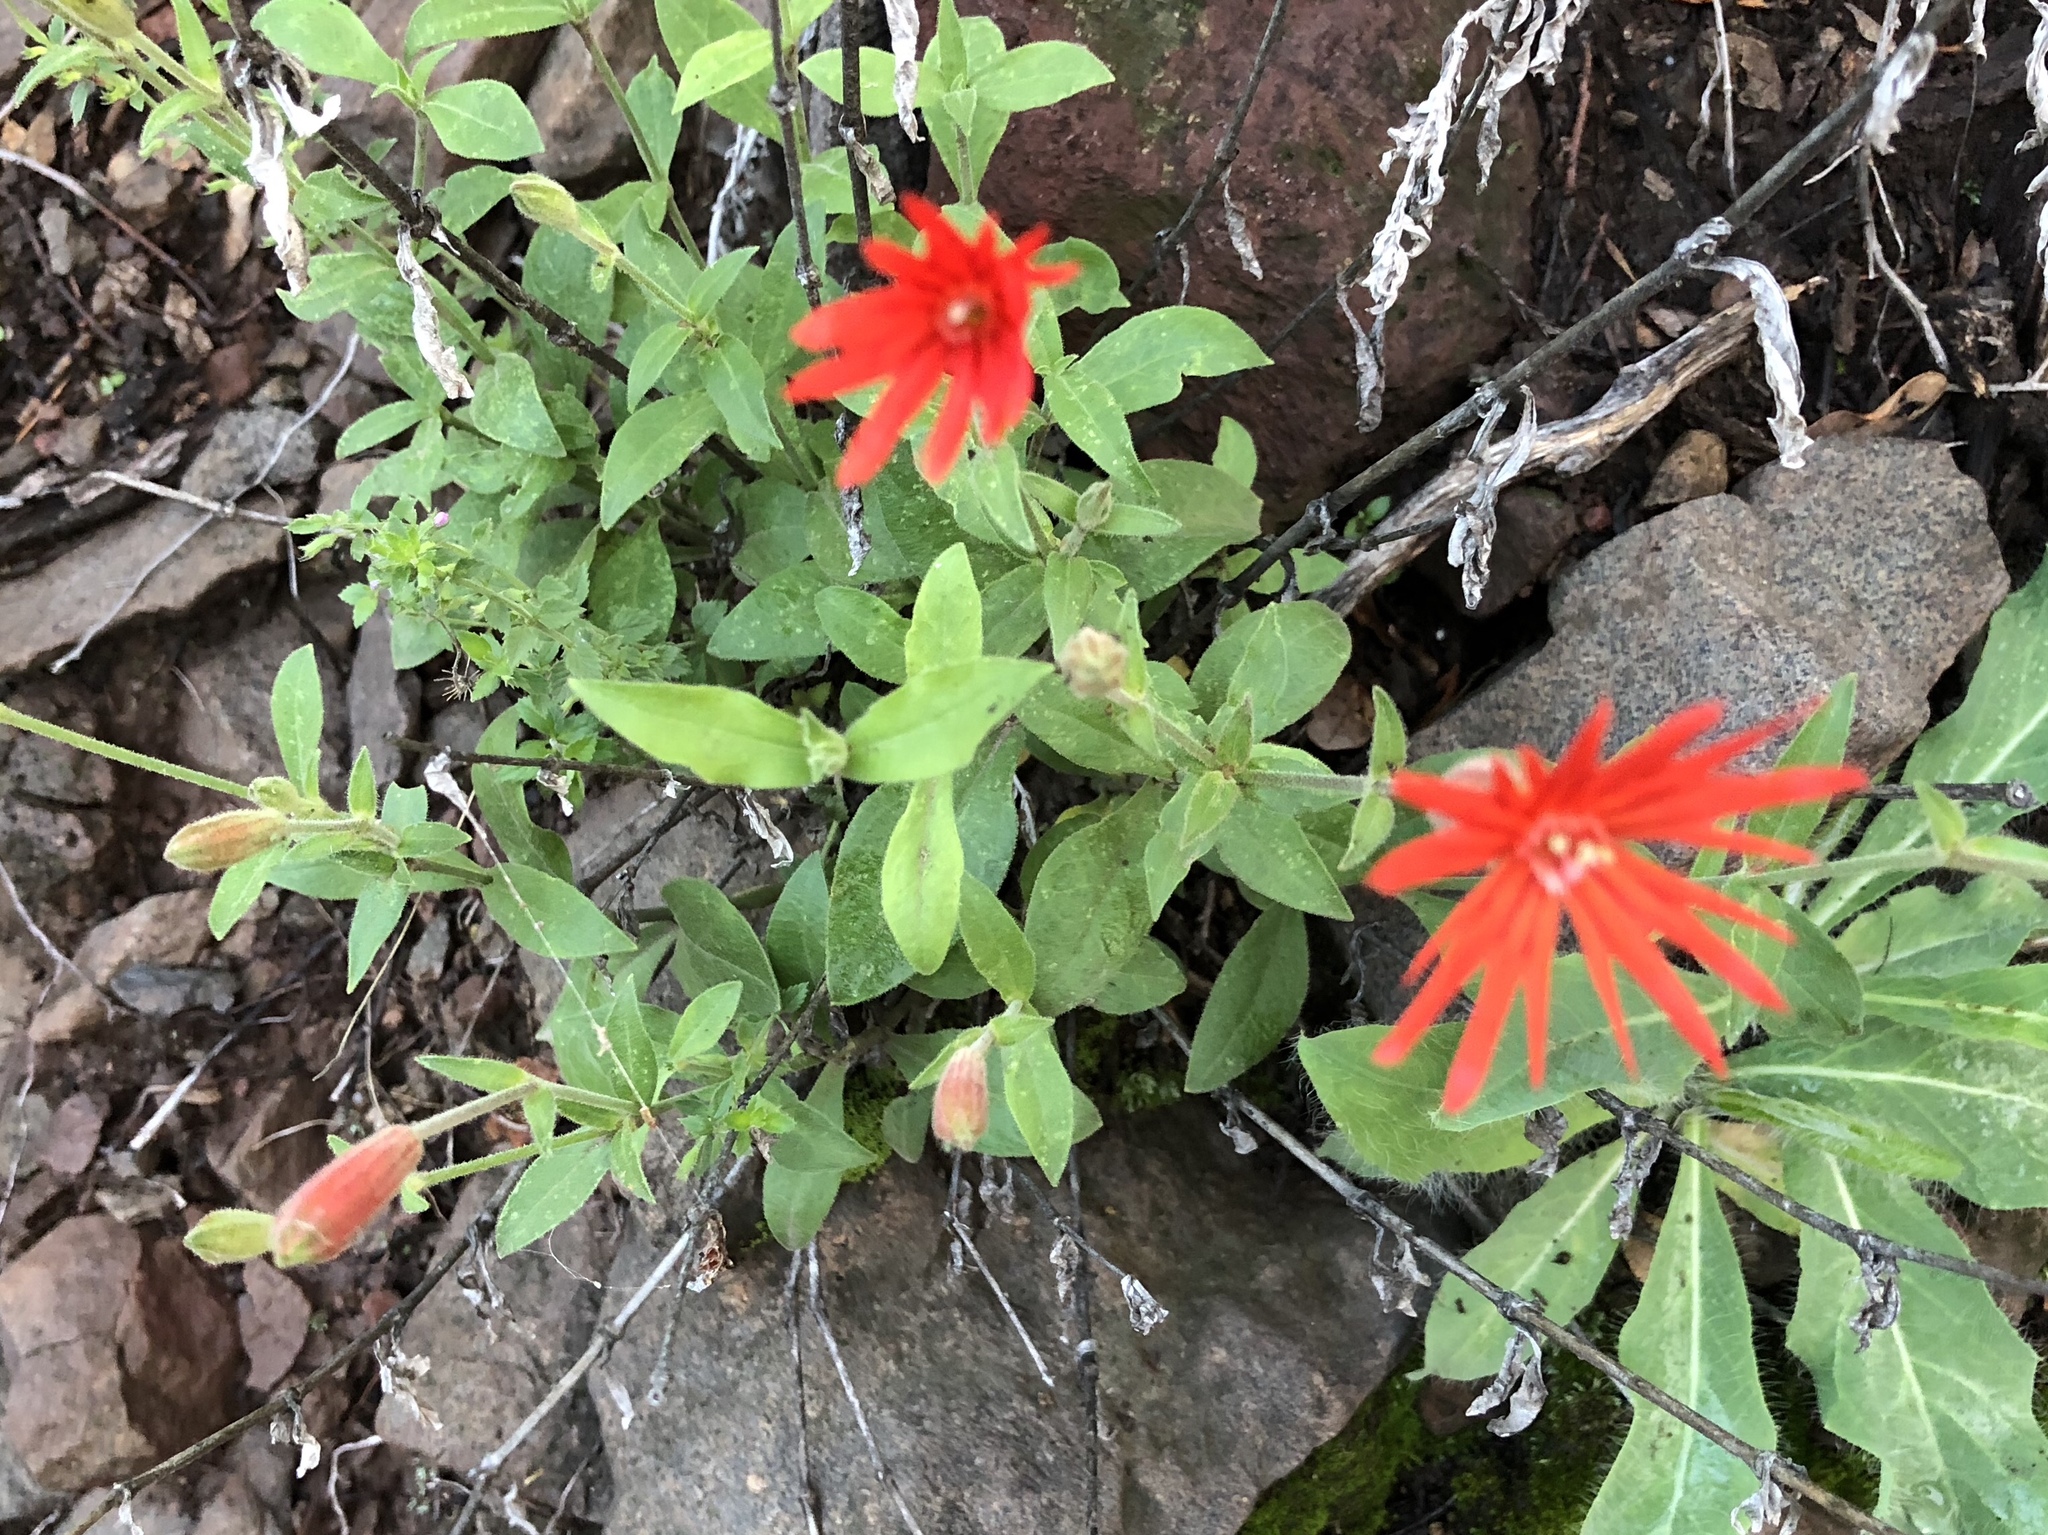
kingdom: Plantae
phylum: Tracheophyta
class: Magnoliopsida
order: Caryophyllales
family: Caryophyllaceae
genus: Silene
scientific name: Silene laciniata
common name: Indian-pink
